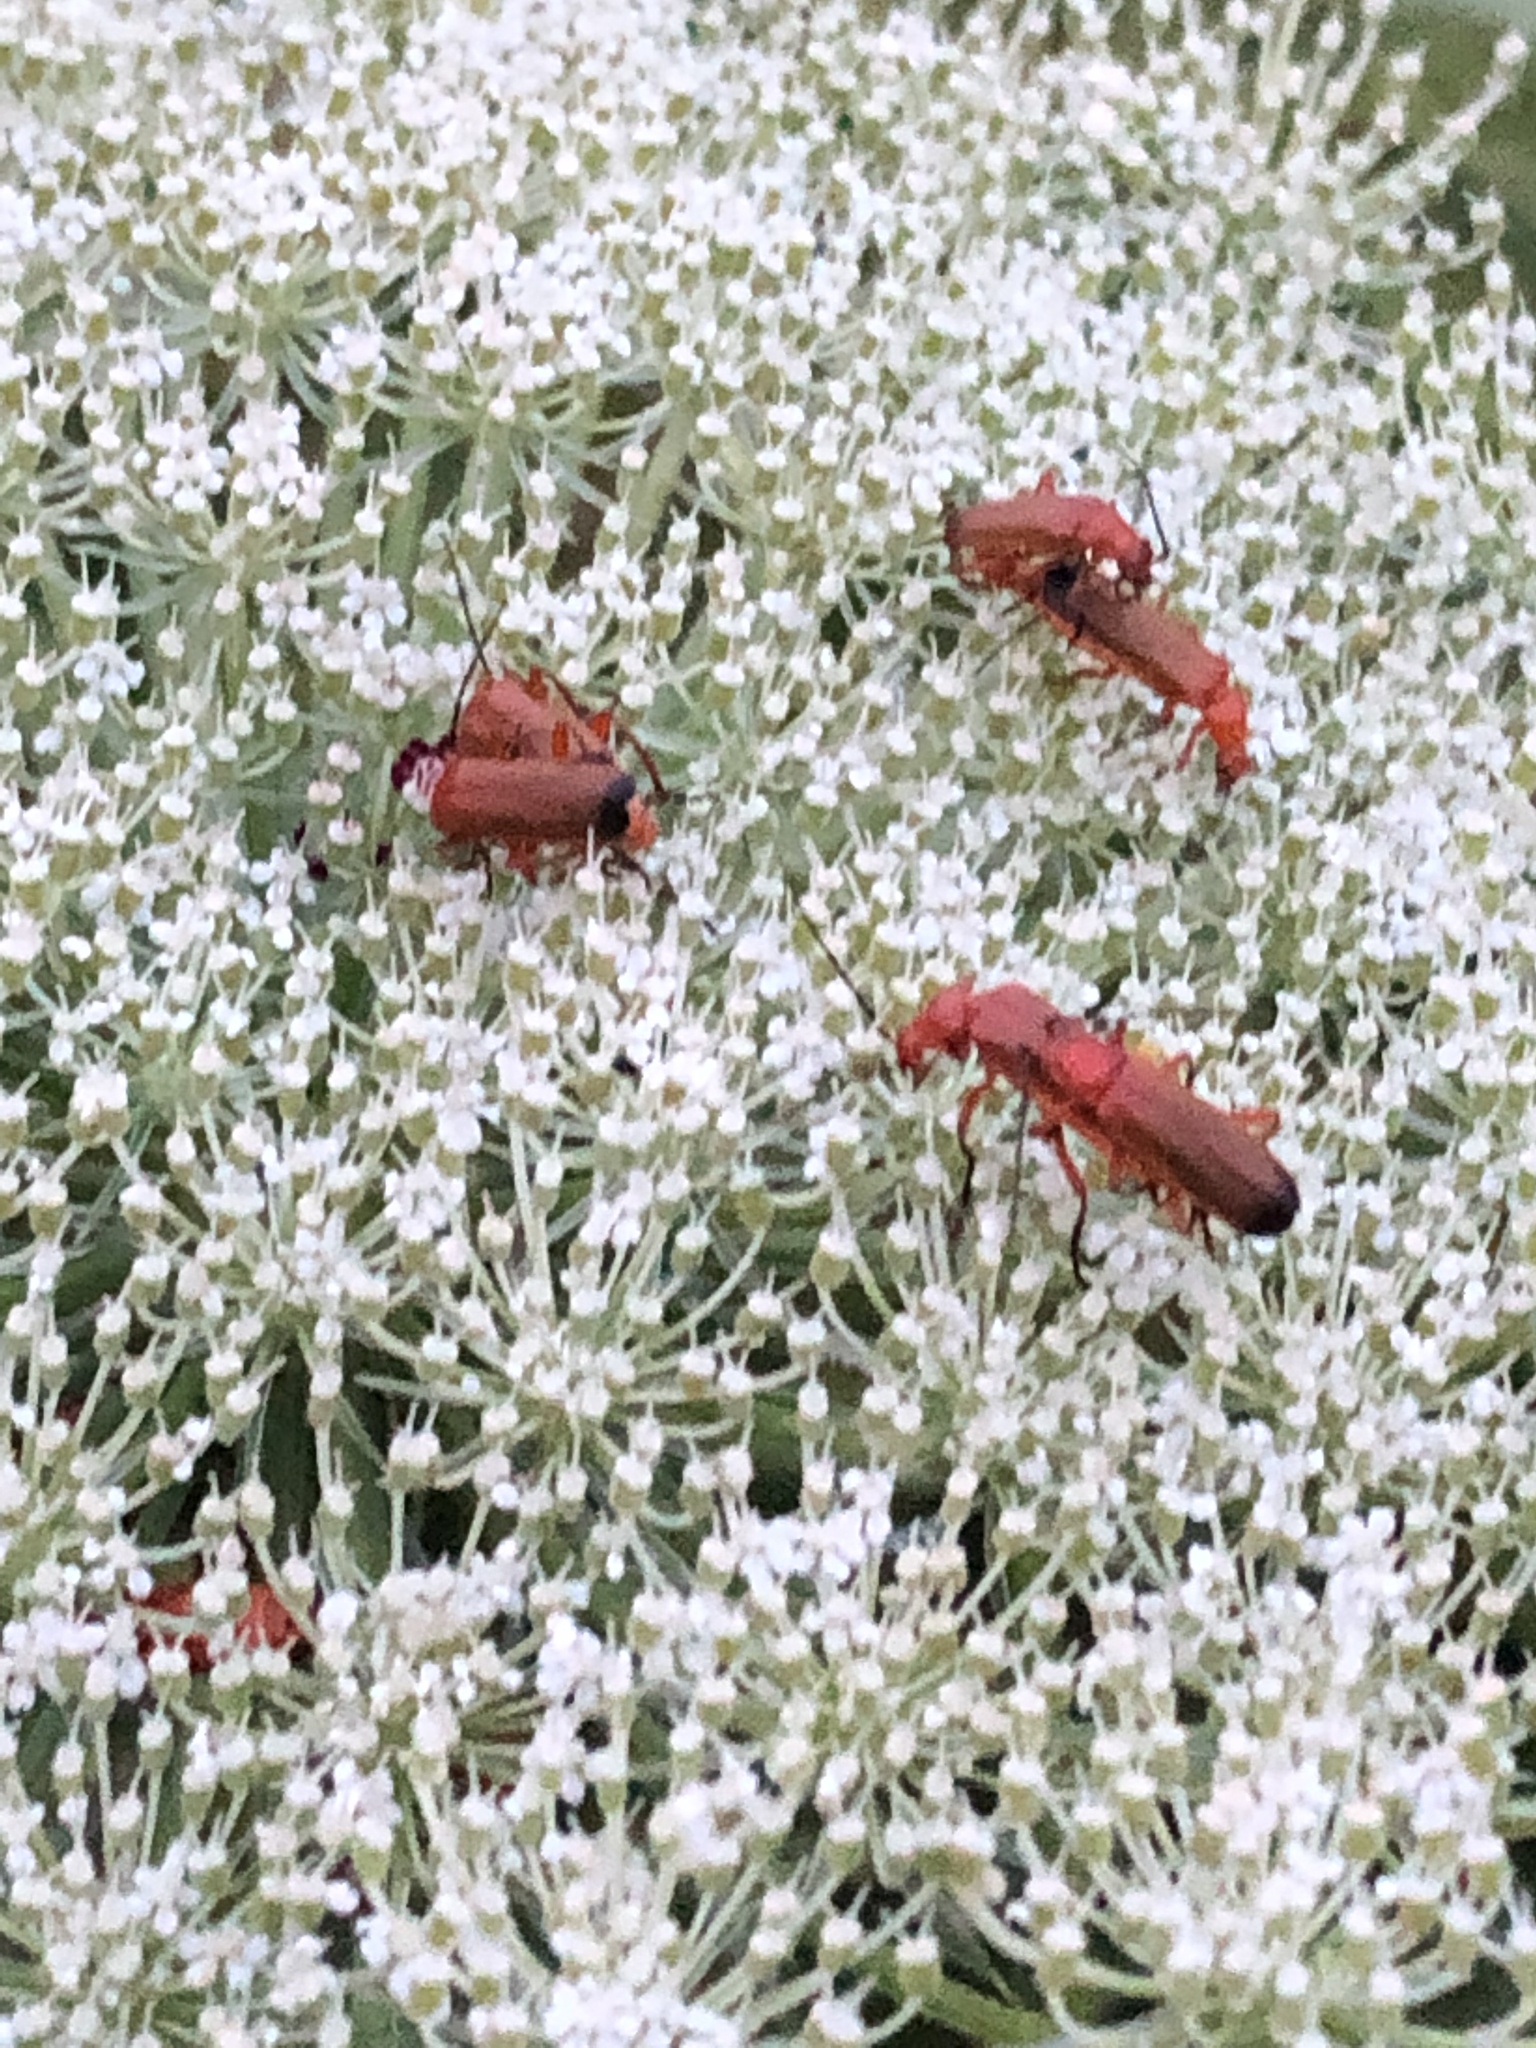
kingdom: Animalia
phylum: Arthropoda
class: Insecta
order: Coleoptera
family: Cantharidae
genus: Rhagonycha
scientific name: Rhagonycha fulva
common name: Common red soldier beetle
